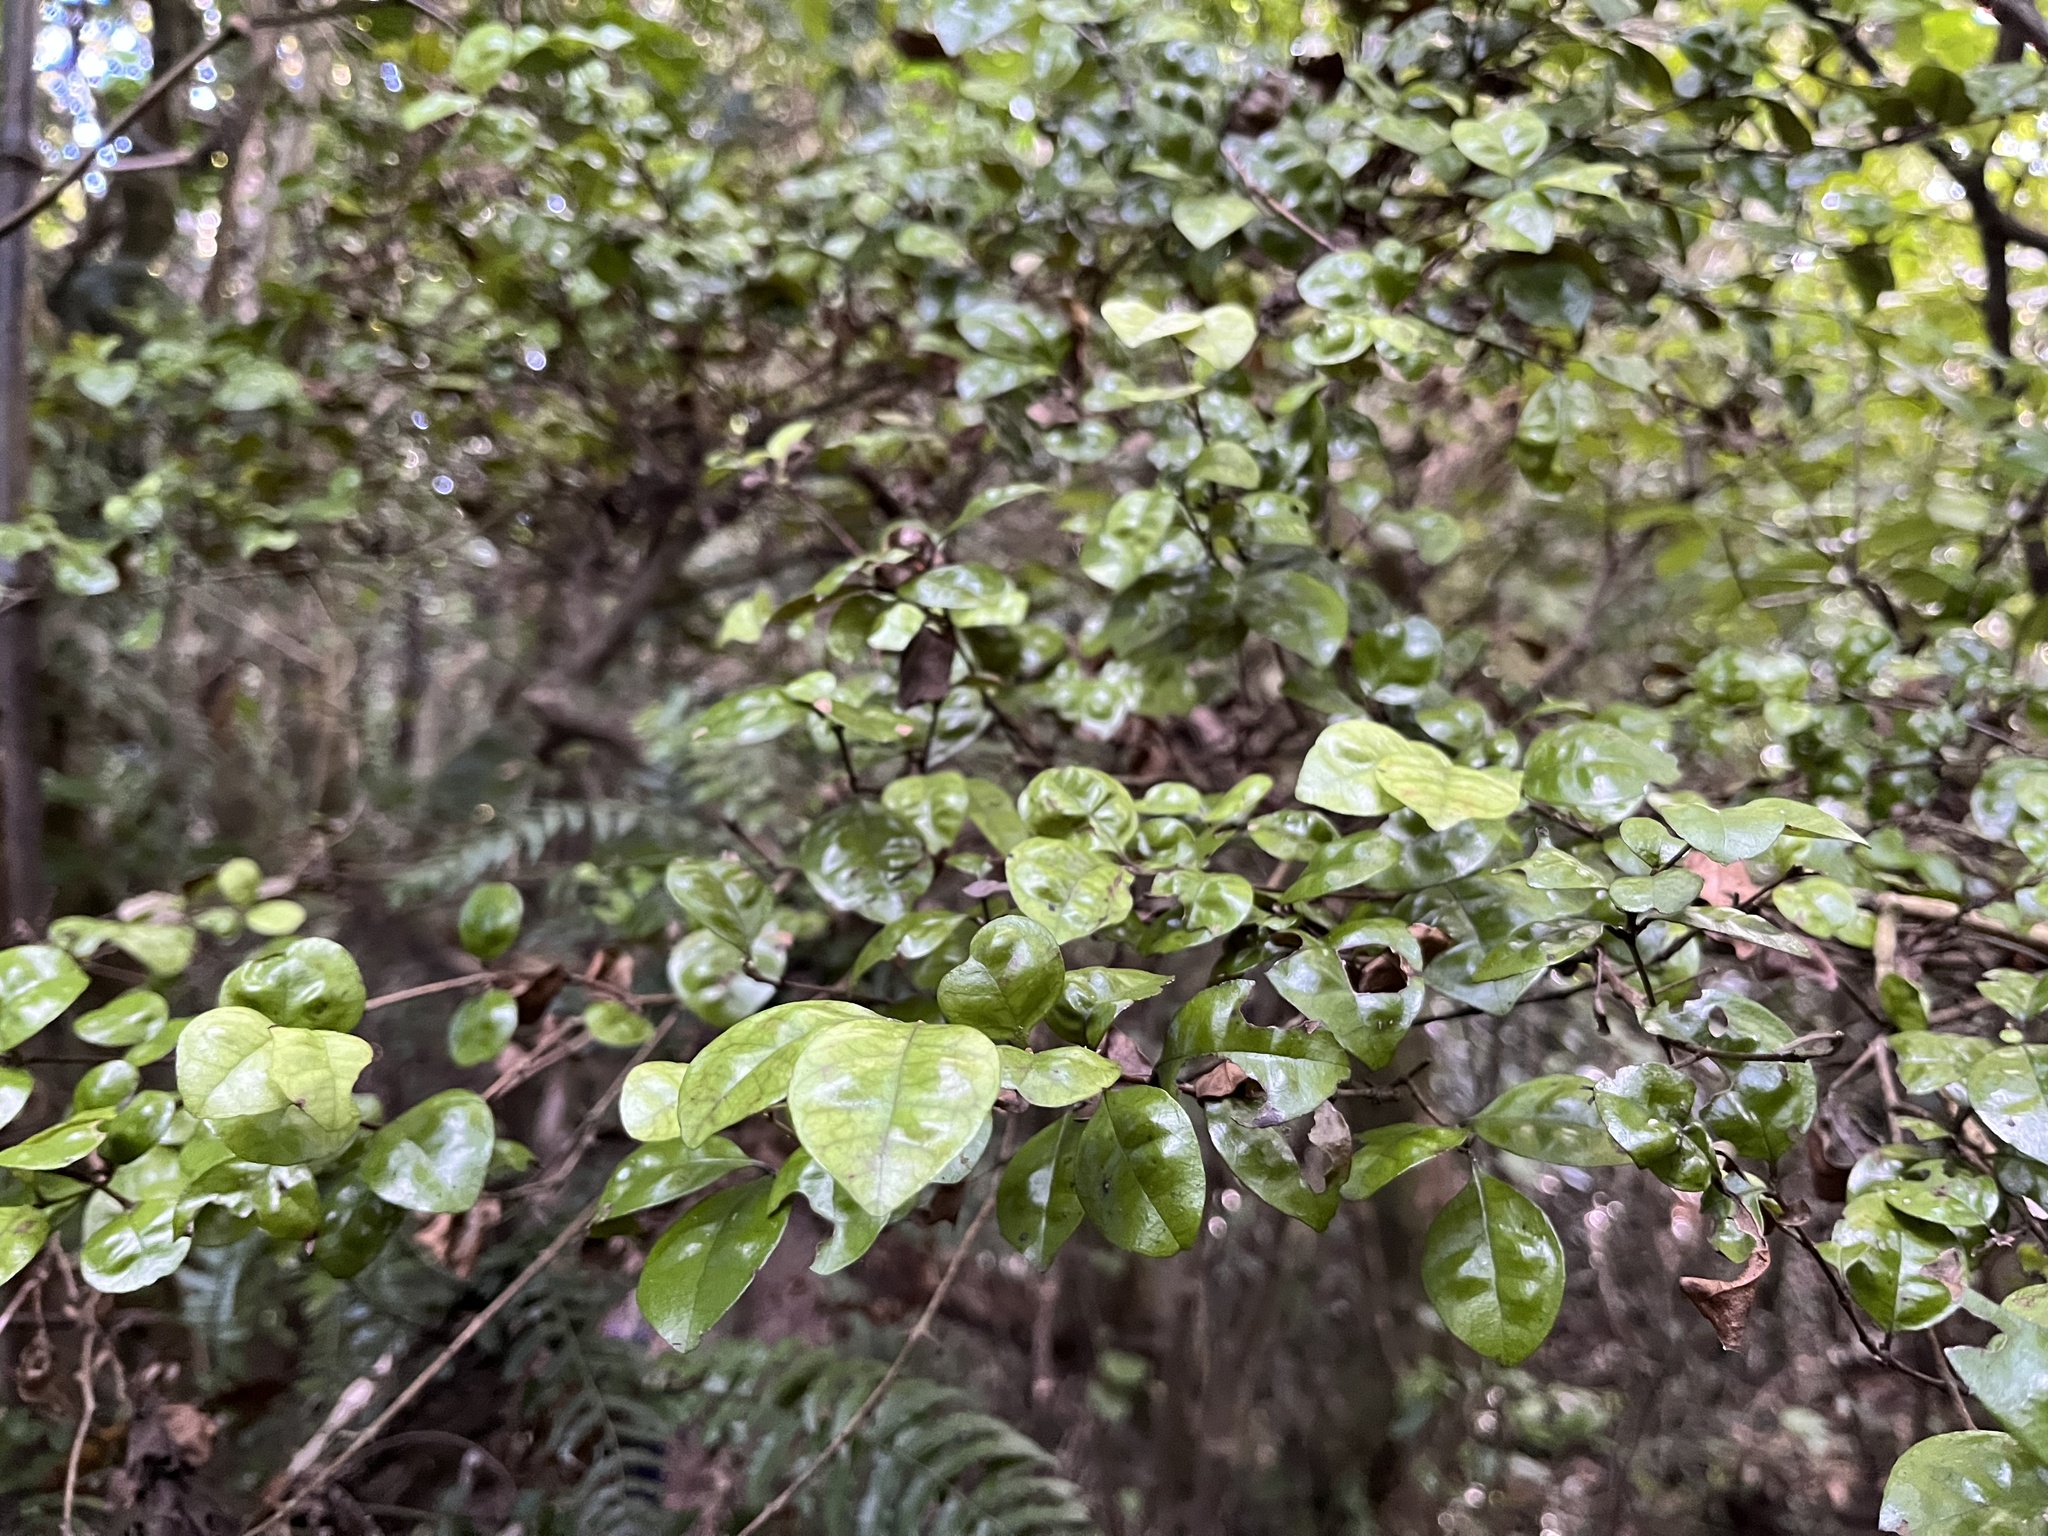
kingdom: Plantae
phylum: Tracheophyta
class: Magnoliopsida
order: Myrtales
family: Myrtaceae
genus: Lophomyrtus
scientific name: Lophomyrtus bullata
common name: Rama rama
